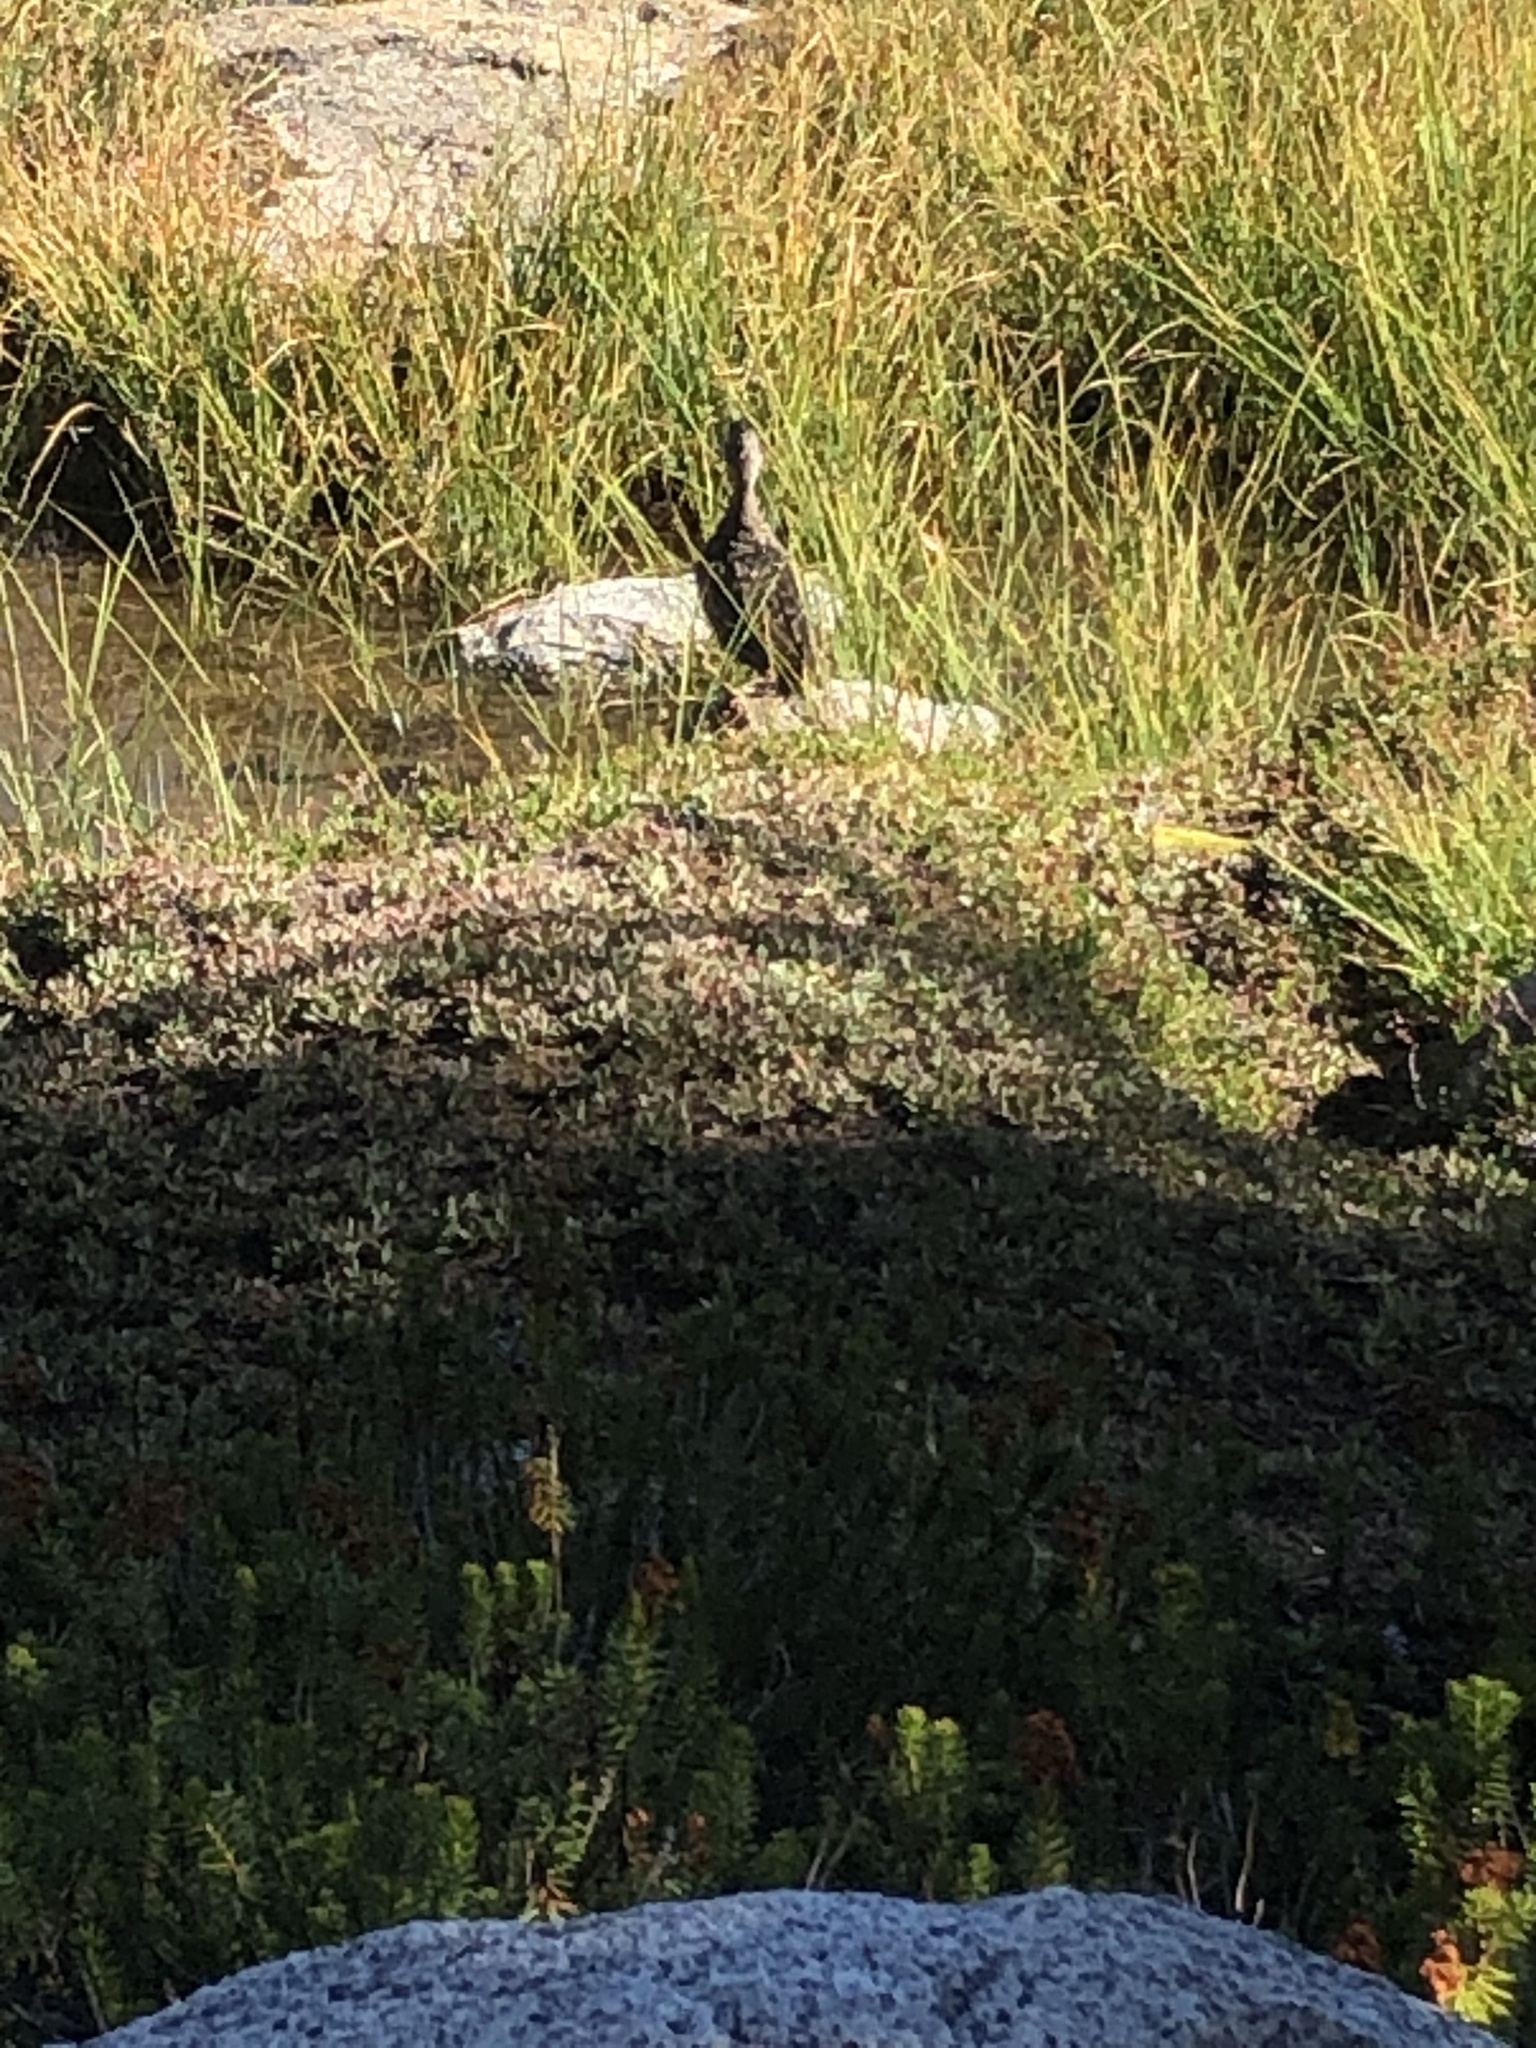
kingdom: Animalia
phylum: Chordata
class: Aves
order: Anseriformes
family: Anatidae
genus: Anas
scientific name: Anas platyrhynchos
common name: Mallard
